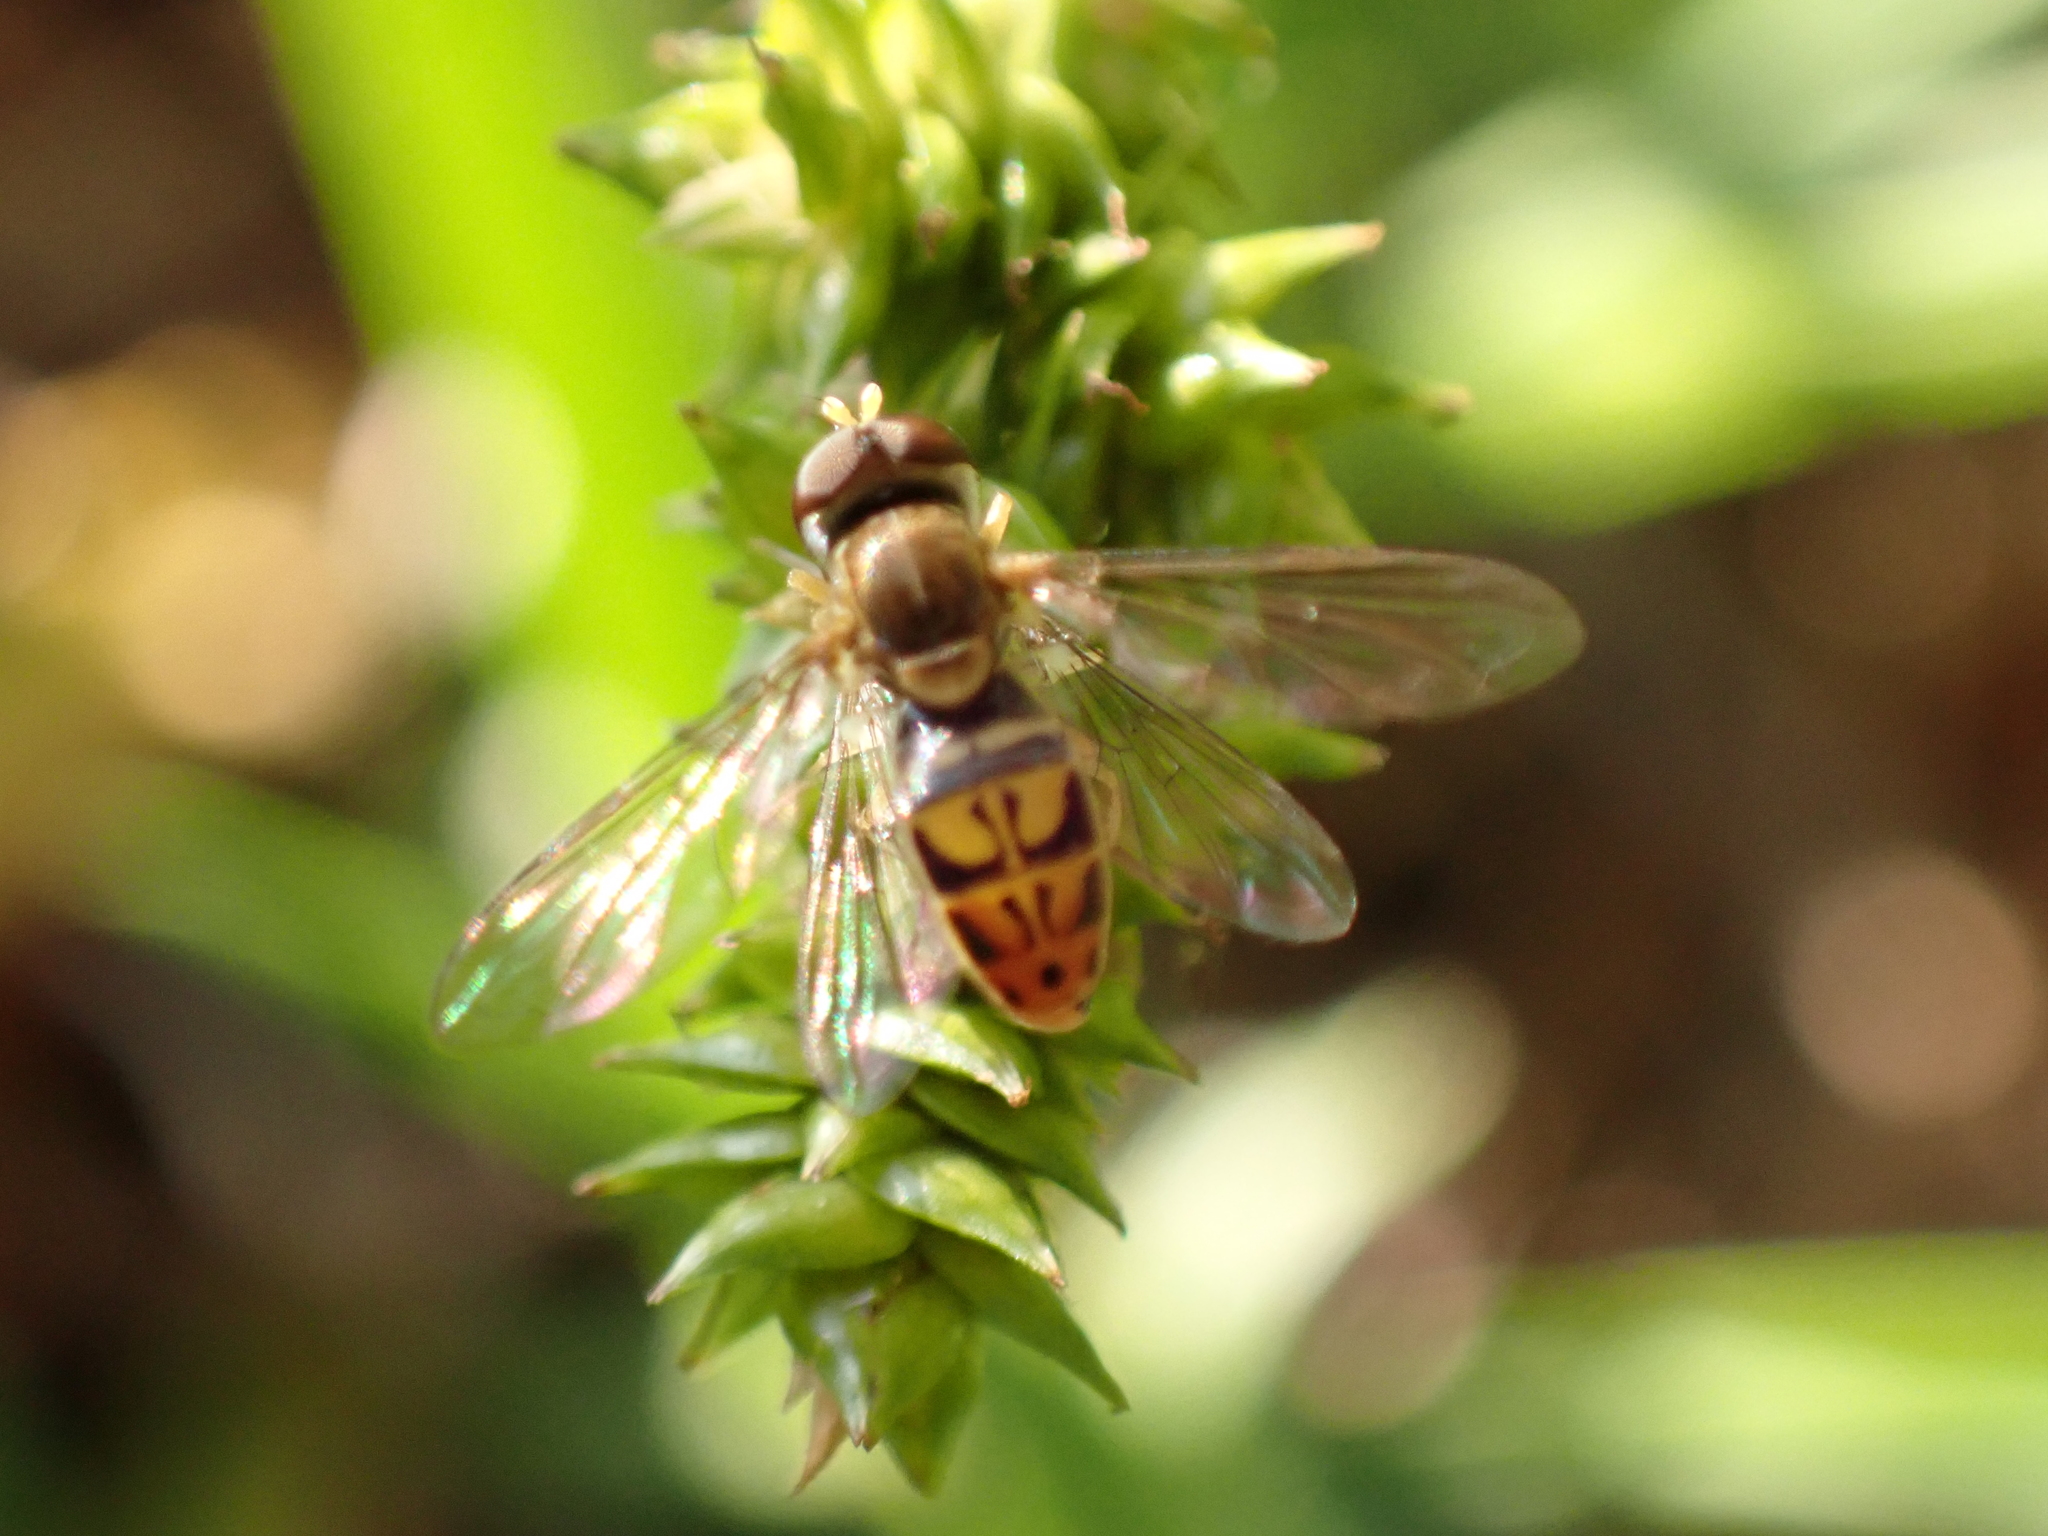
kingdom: Animalia
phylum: Arthropoda
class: Insecta
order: Diptera
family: Syrphidae
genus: Toxomerus
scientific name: Toxomerus marginatus
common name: Syrphid fly
